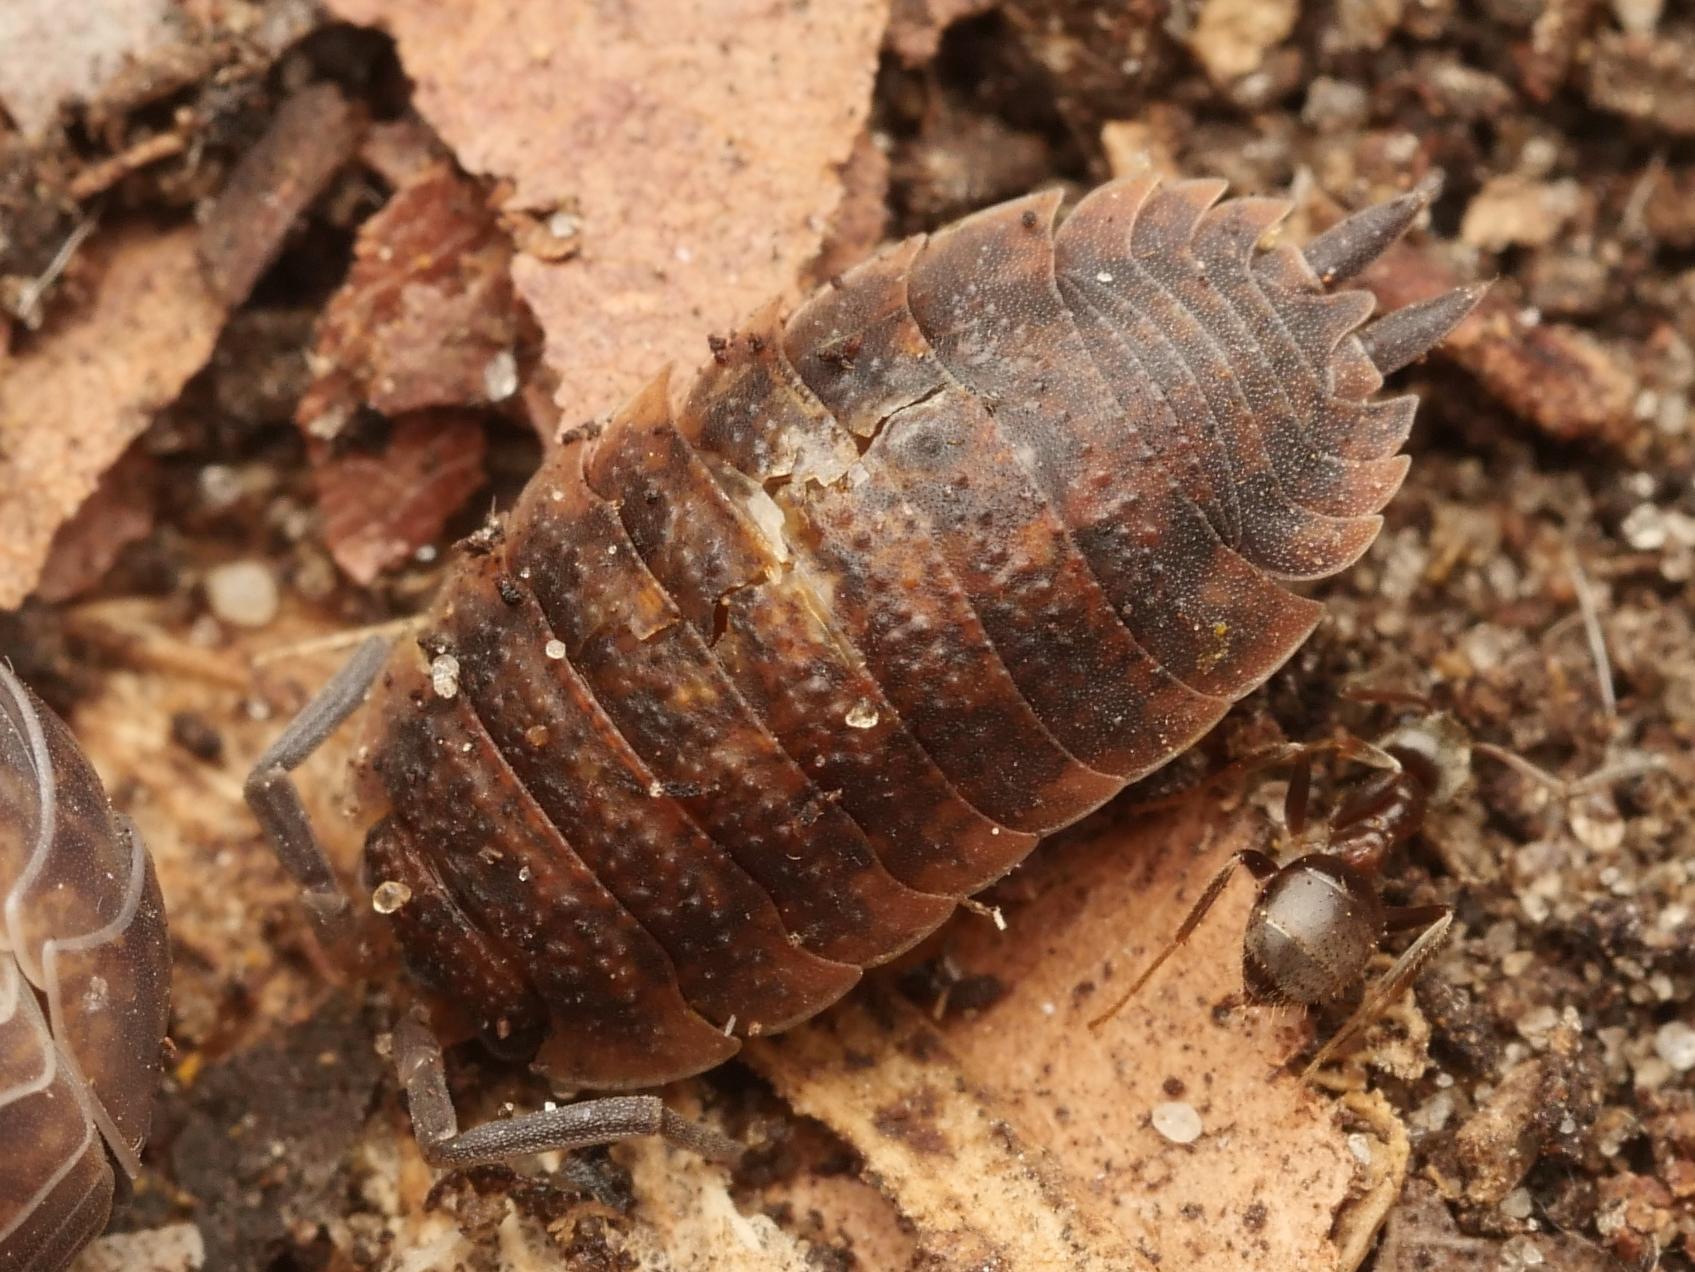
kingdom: Animalia
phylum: Arthropoda
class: Malacostraca
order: Isopoda
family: Porcellionidae
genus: Porcellio
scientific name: Porcellio scaber
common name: Common rough woodlouse
